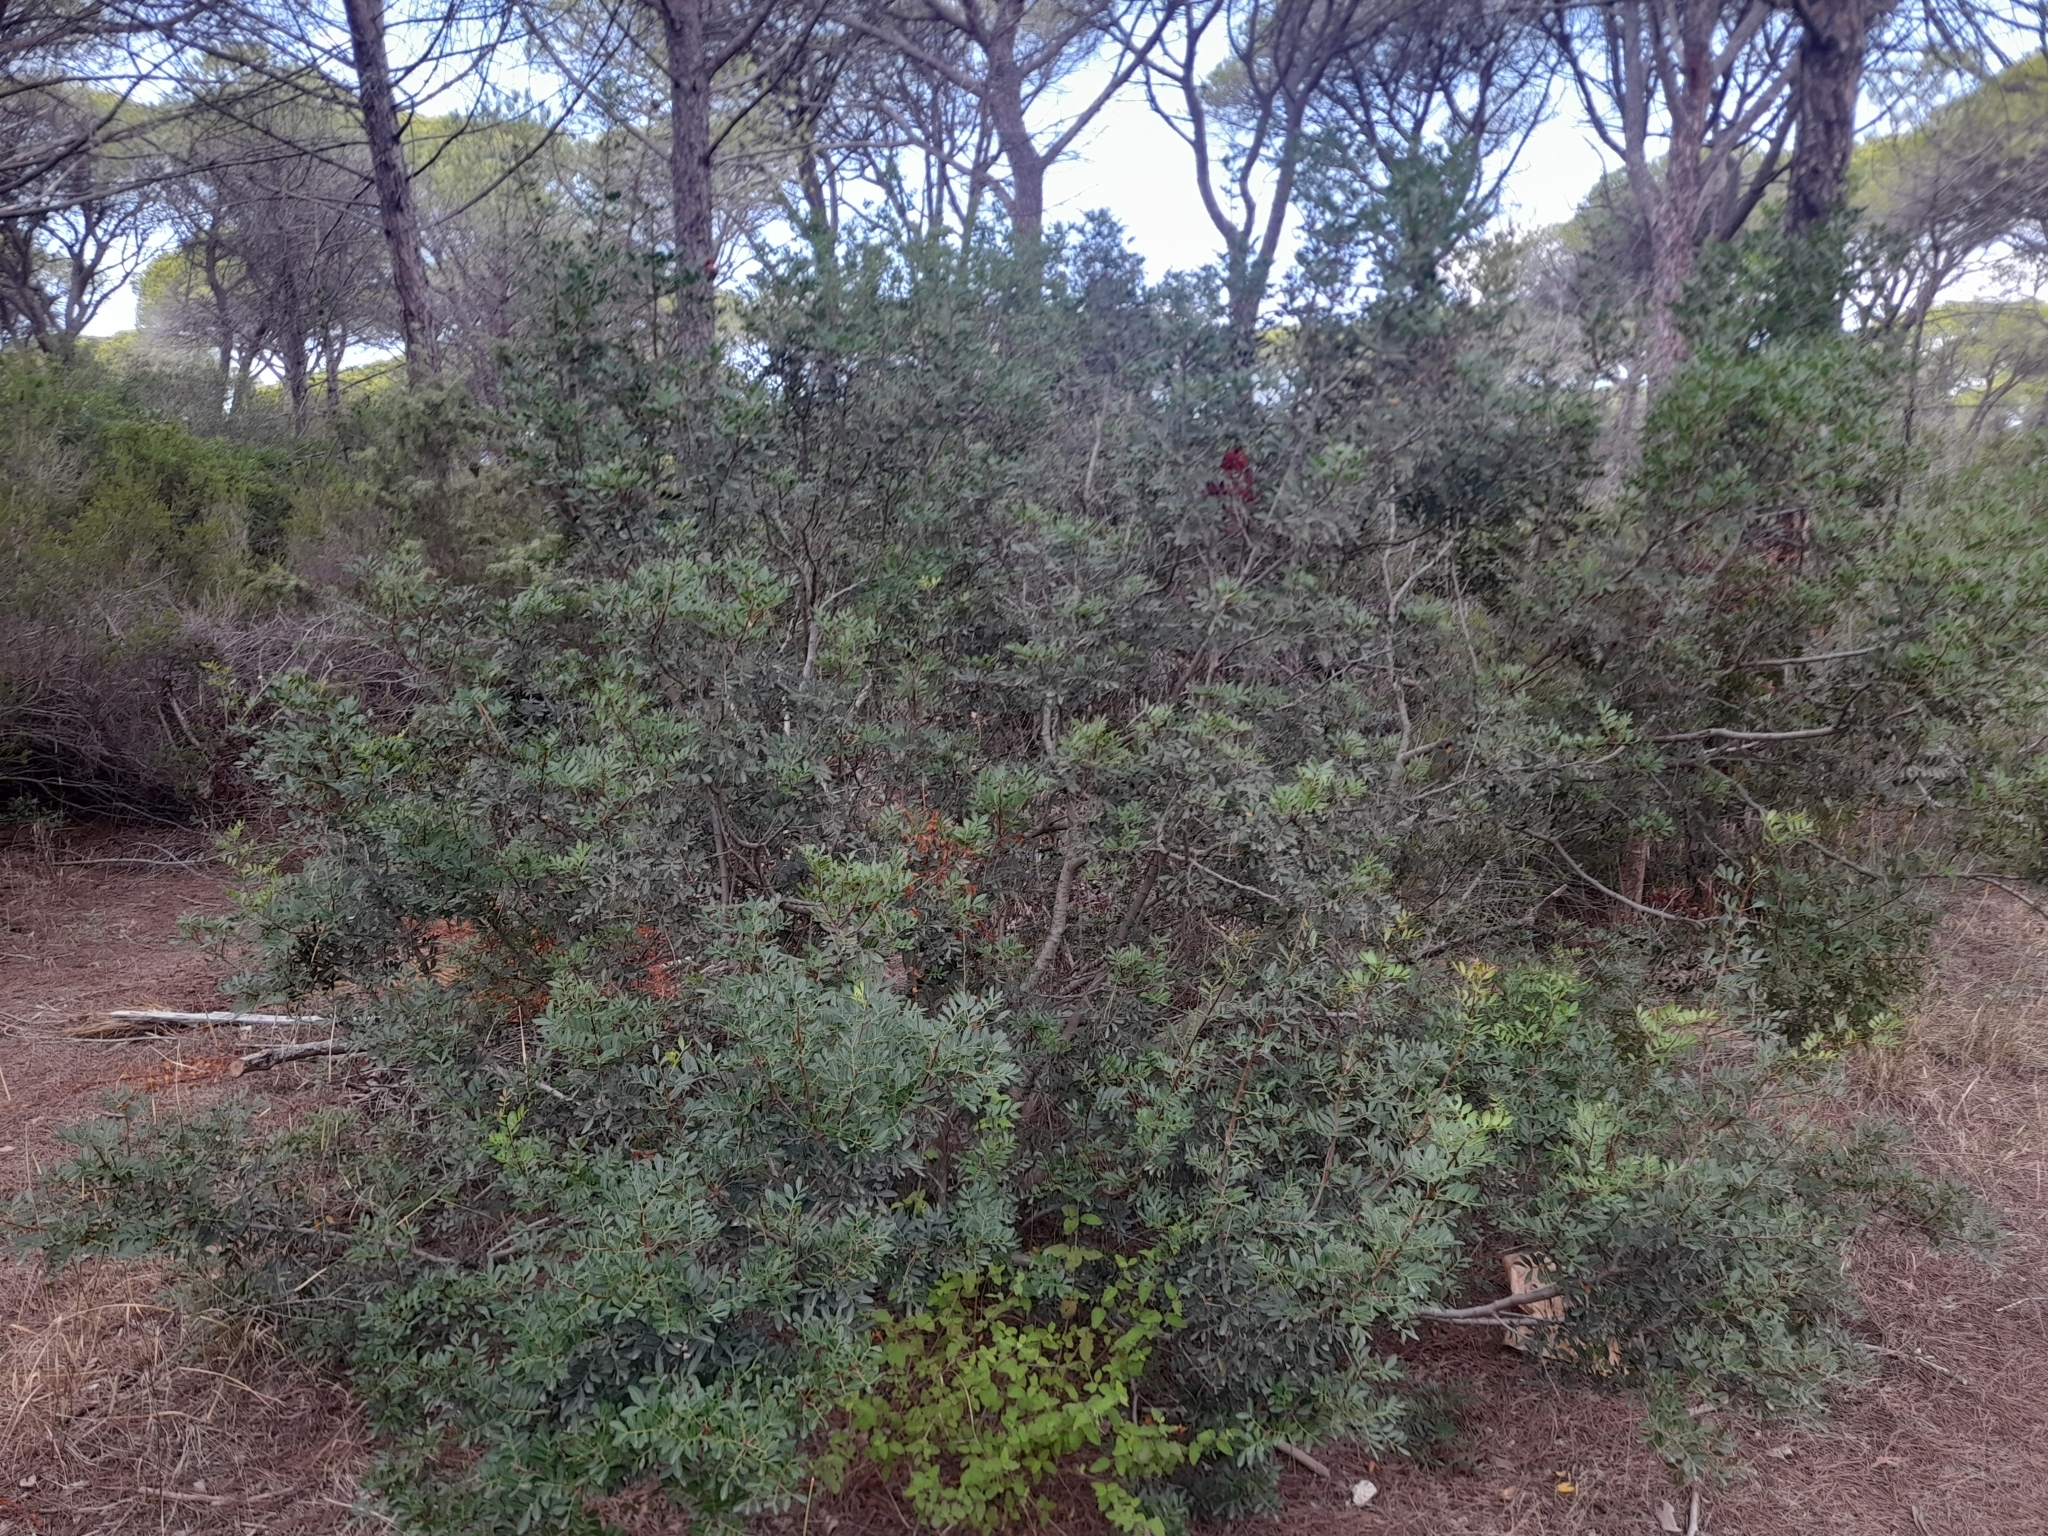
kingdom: Plantae
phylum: Tracheophyta
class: Magnoliopsida
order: Sapindales
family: Anacardiaceae
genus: Pistacia
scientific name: Pistacia lentiscus
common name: Lentisk
